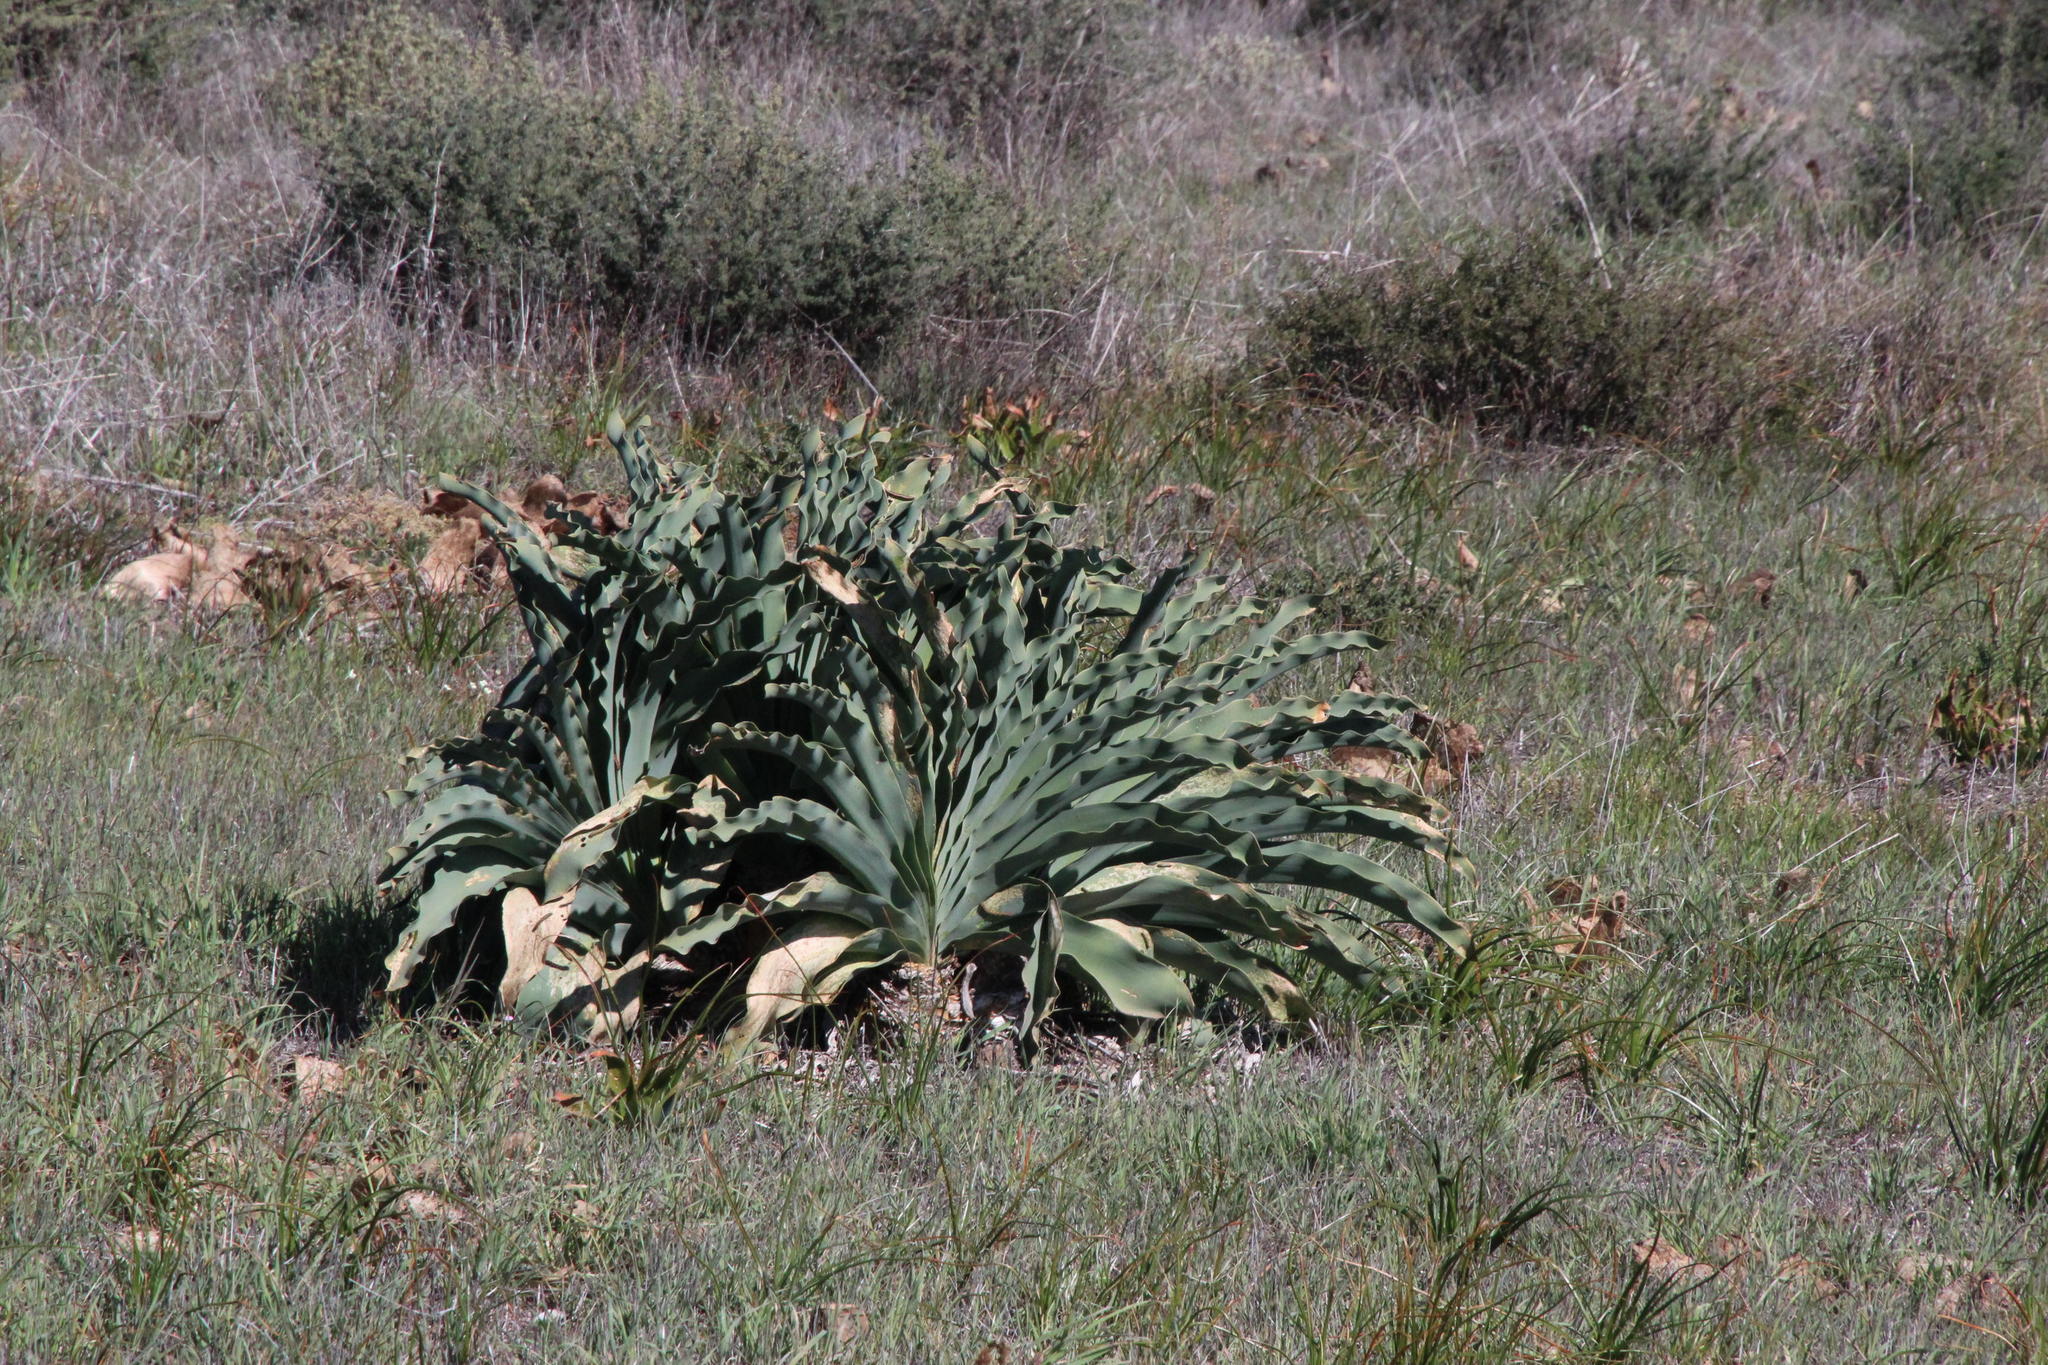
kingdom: Plantae
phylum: Tracheophyta
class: Liliopsida
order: Asparagales
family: Amaryllidaceae
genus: Boophone
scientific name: Boophone haemanthoides
